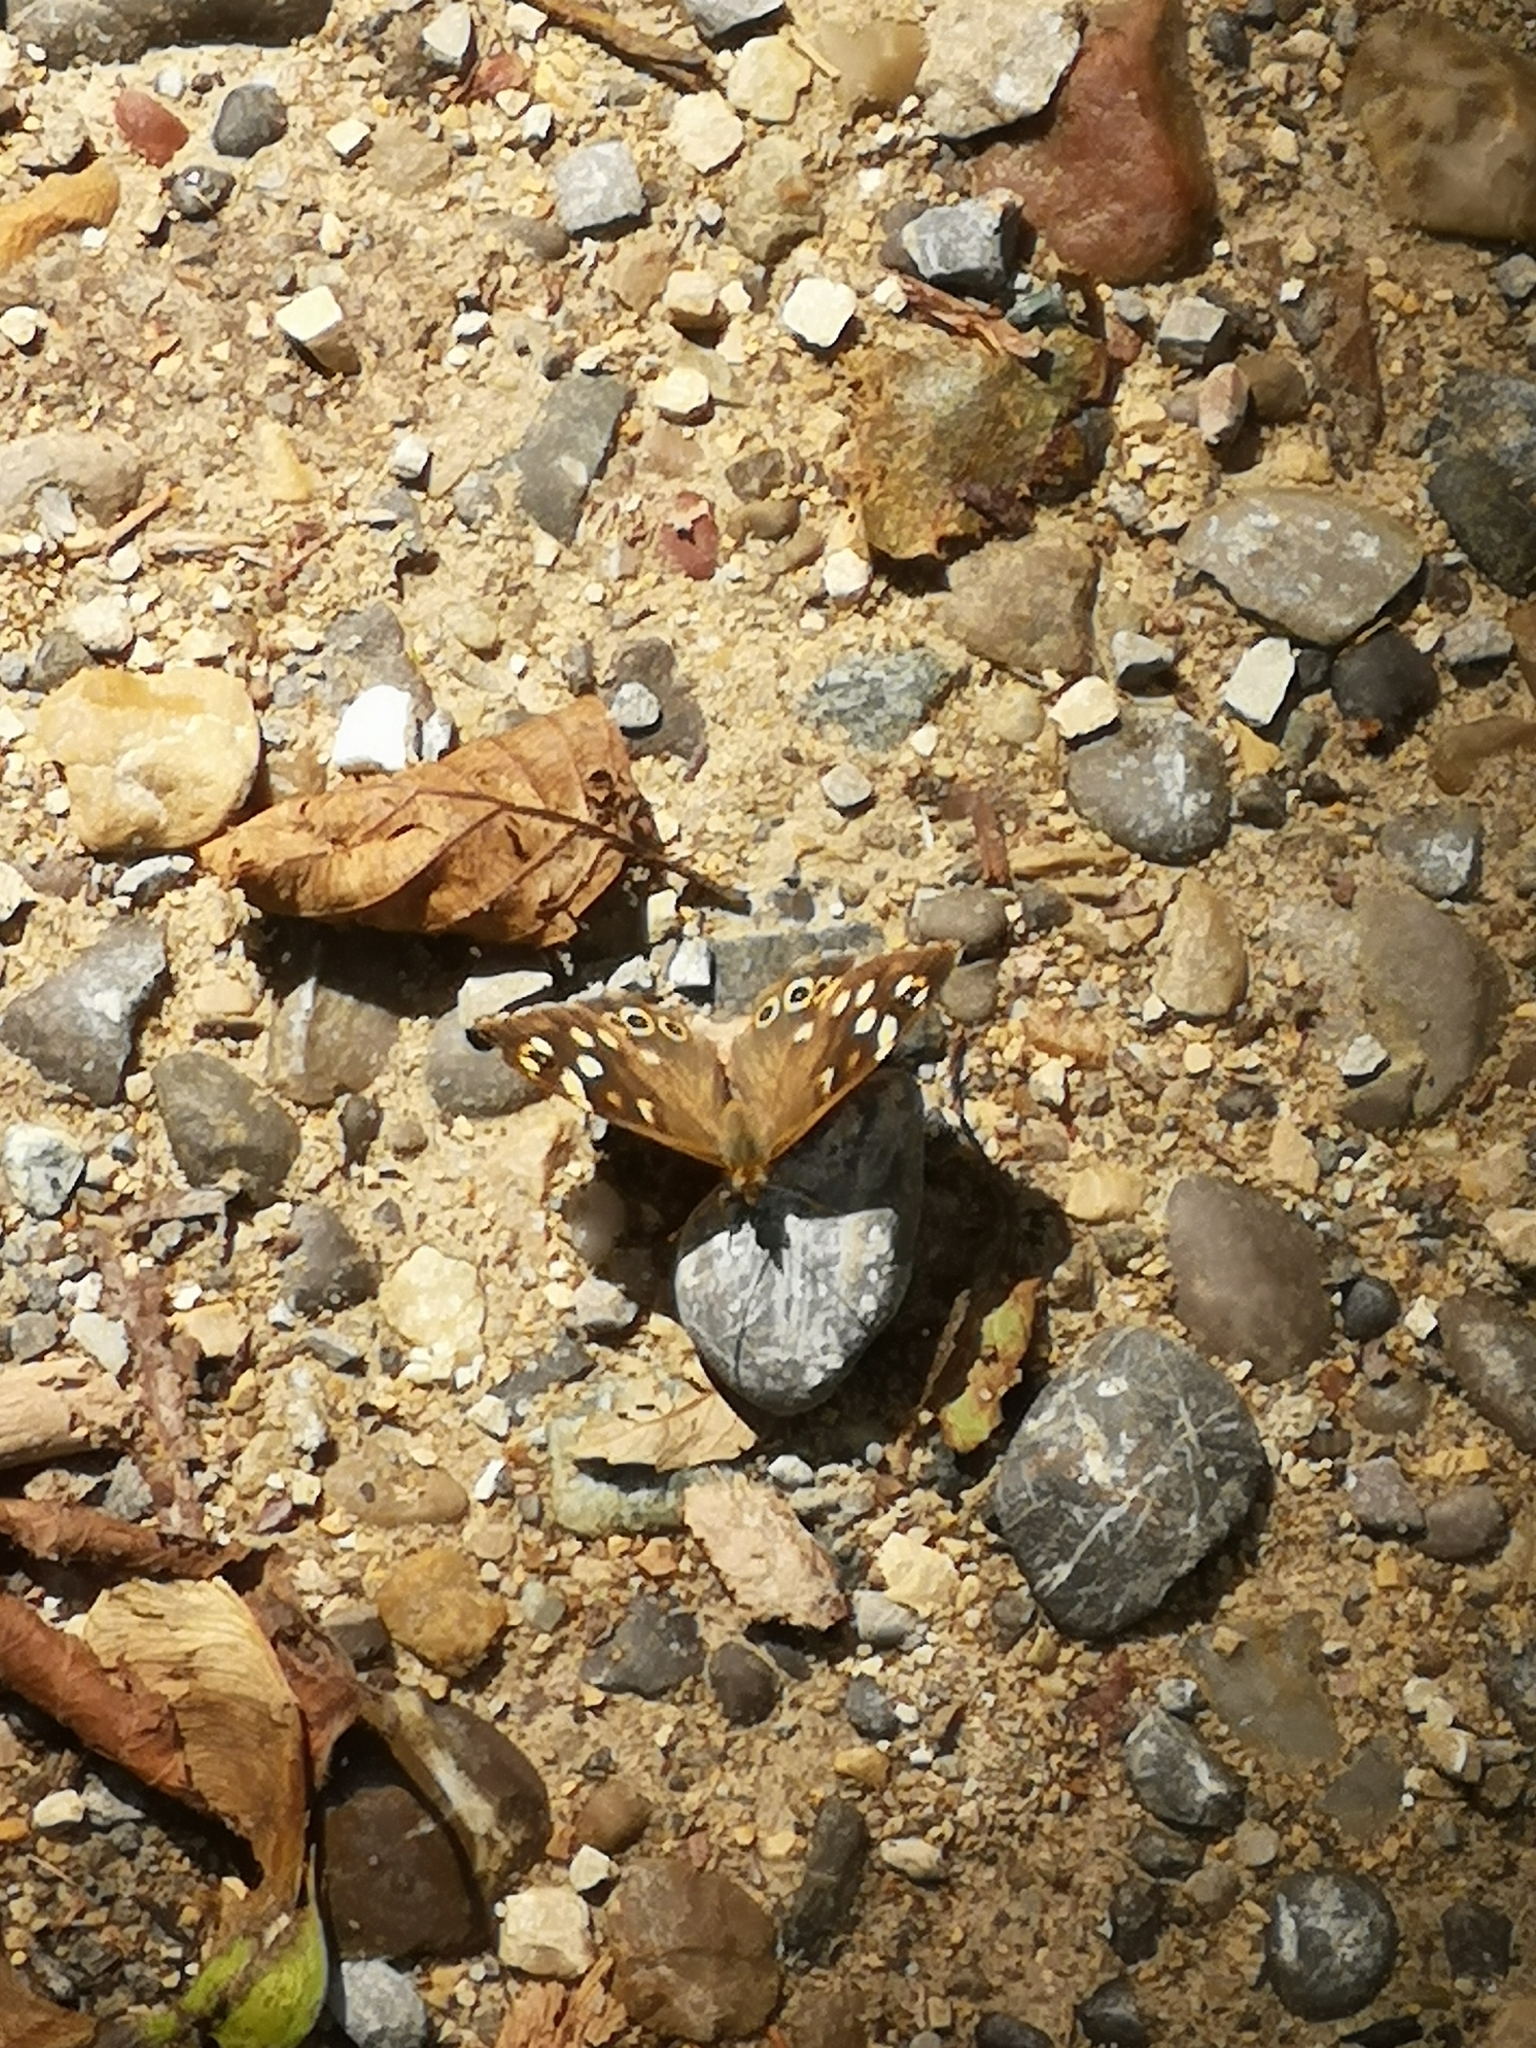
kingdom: Animalia
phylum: Arthropoda
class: Insecta
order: Lepidoptera
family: Nymphalidae
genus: Pararge
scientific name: Pararge aegeria
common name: Speckled wood
